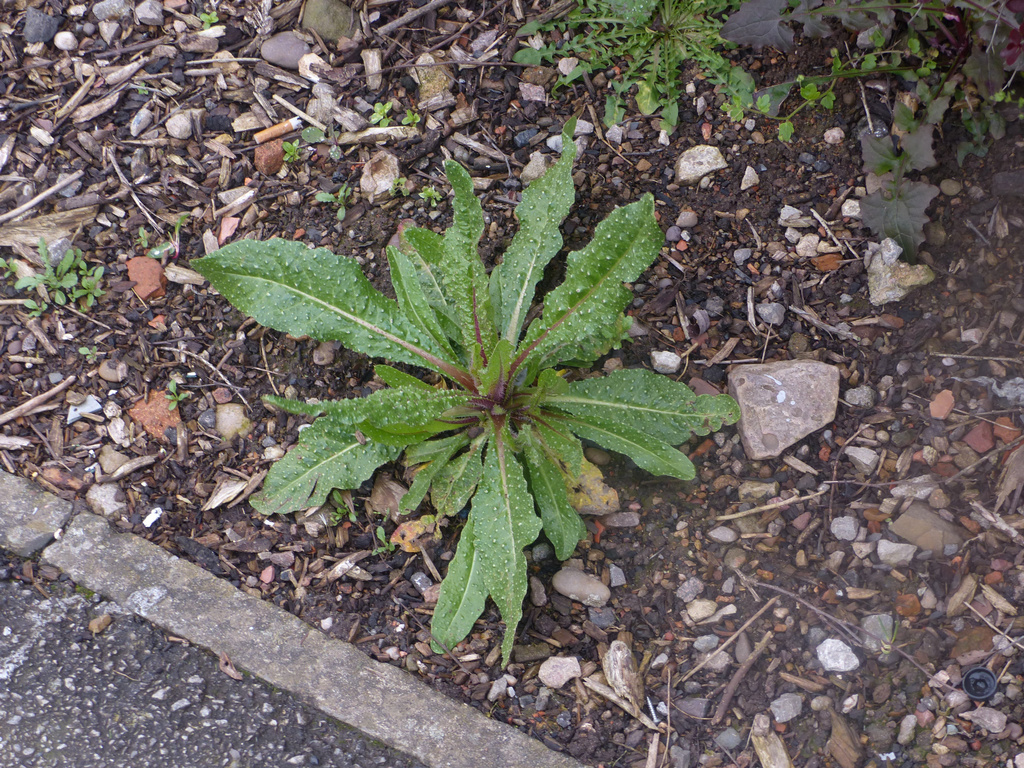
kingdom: Plantae
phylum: Tracheophyta
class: Magnoliopsida
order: Asterales
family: Asteraceae
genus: Helminthotheca
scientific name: Helminthotheca echioides
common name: Ox-tongue
